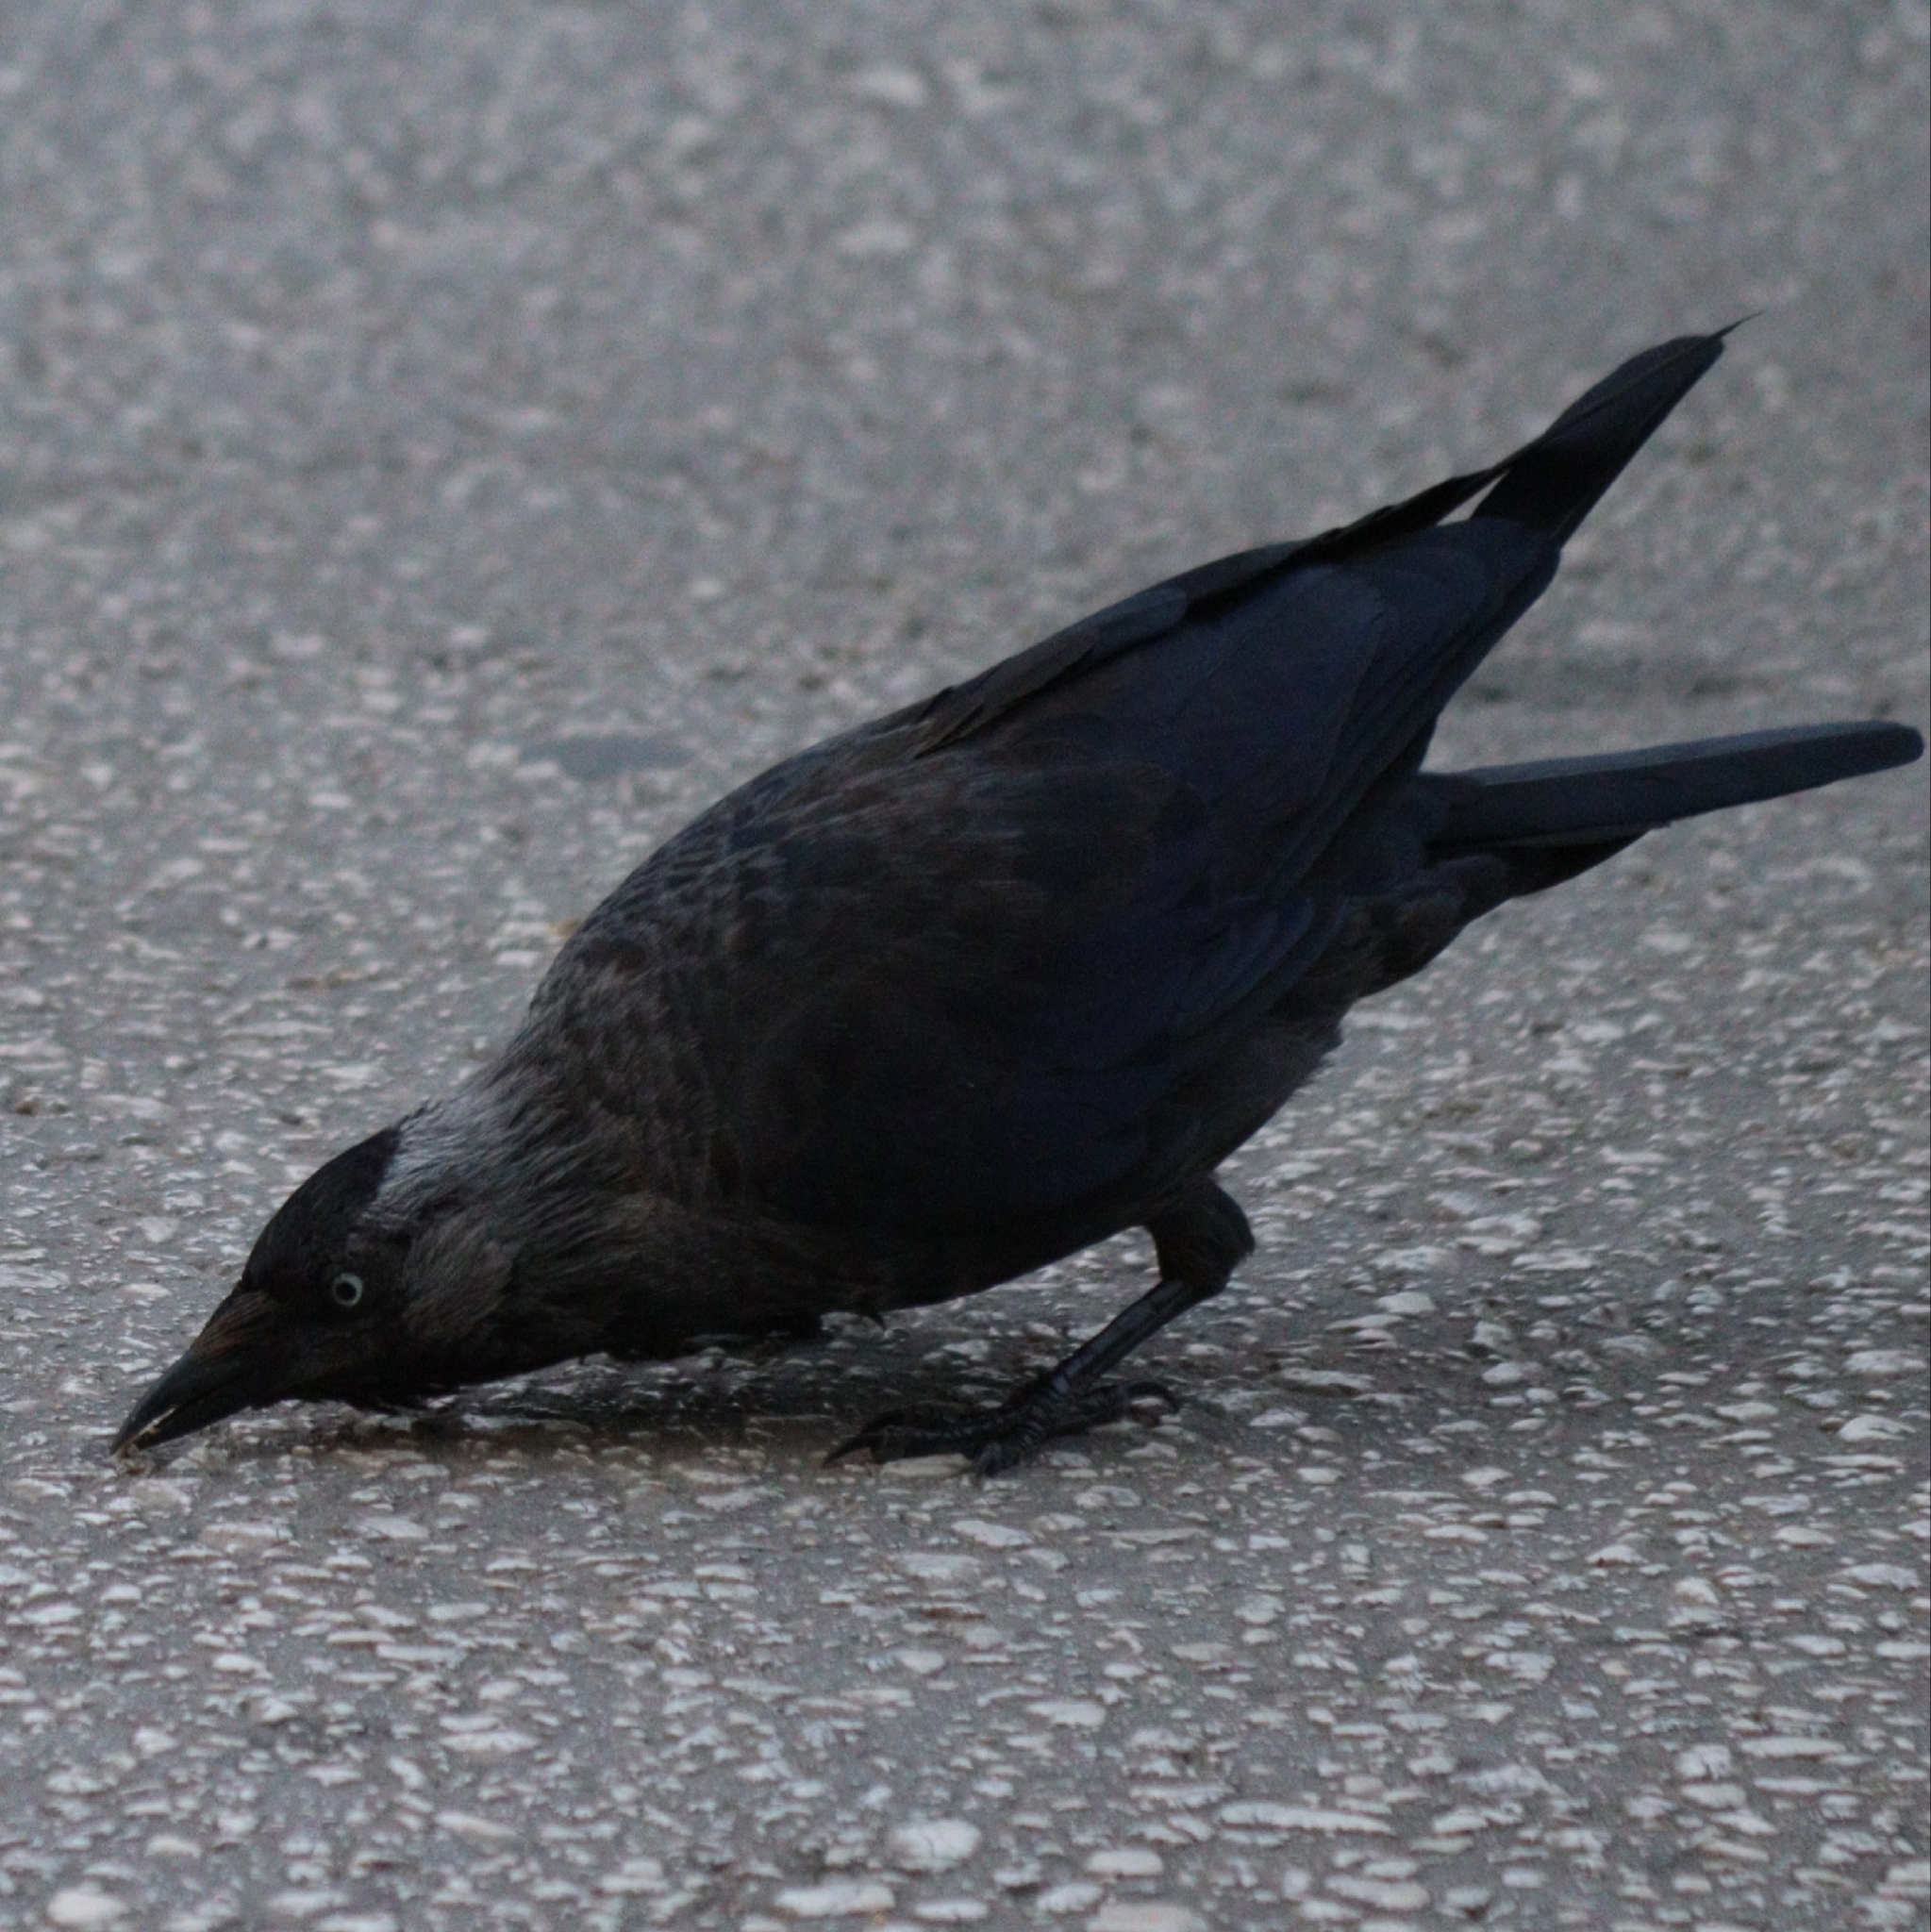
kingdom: Animalia
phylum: Chordata
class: Aves
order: Passeriformes
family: Corvidae
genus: Coloeus
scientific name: Coloeus monedula
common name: Western jackdaw
